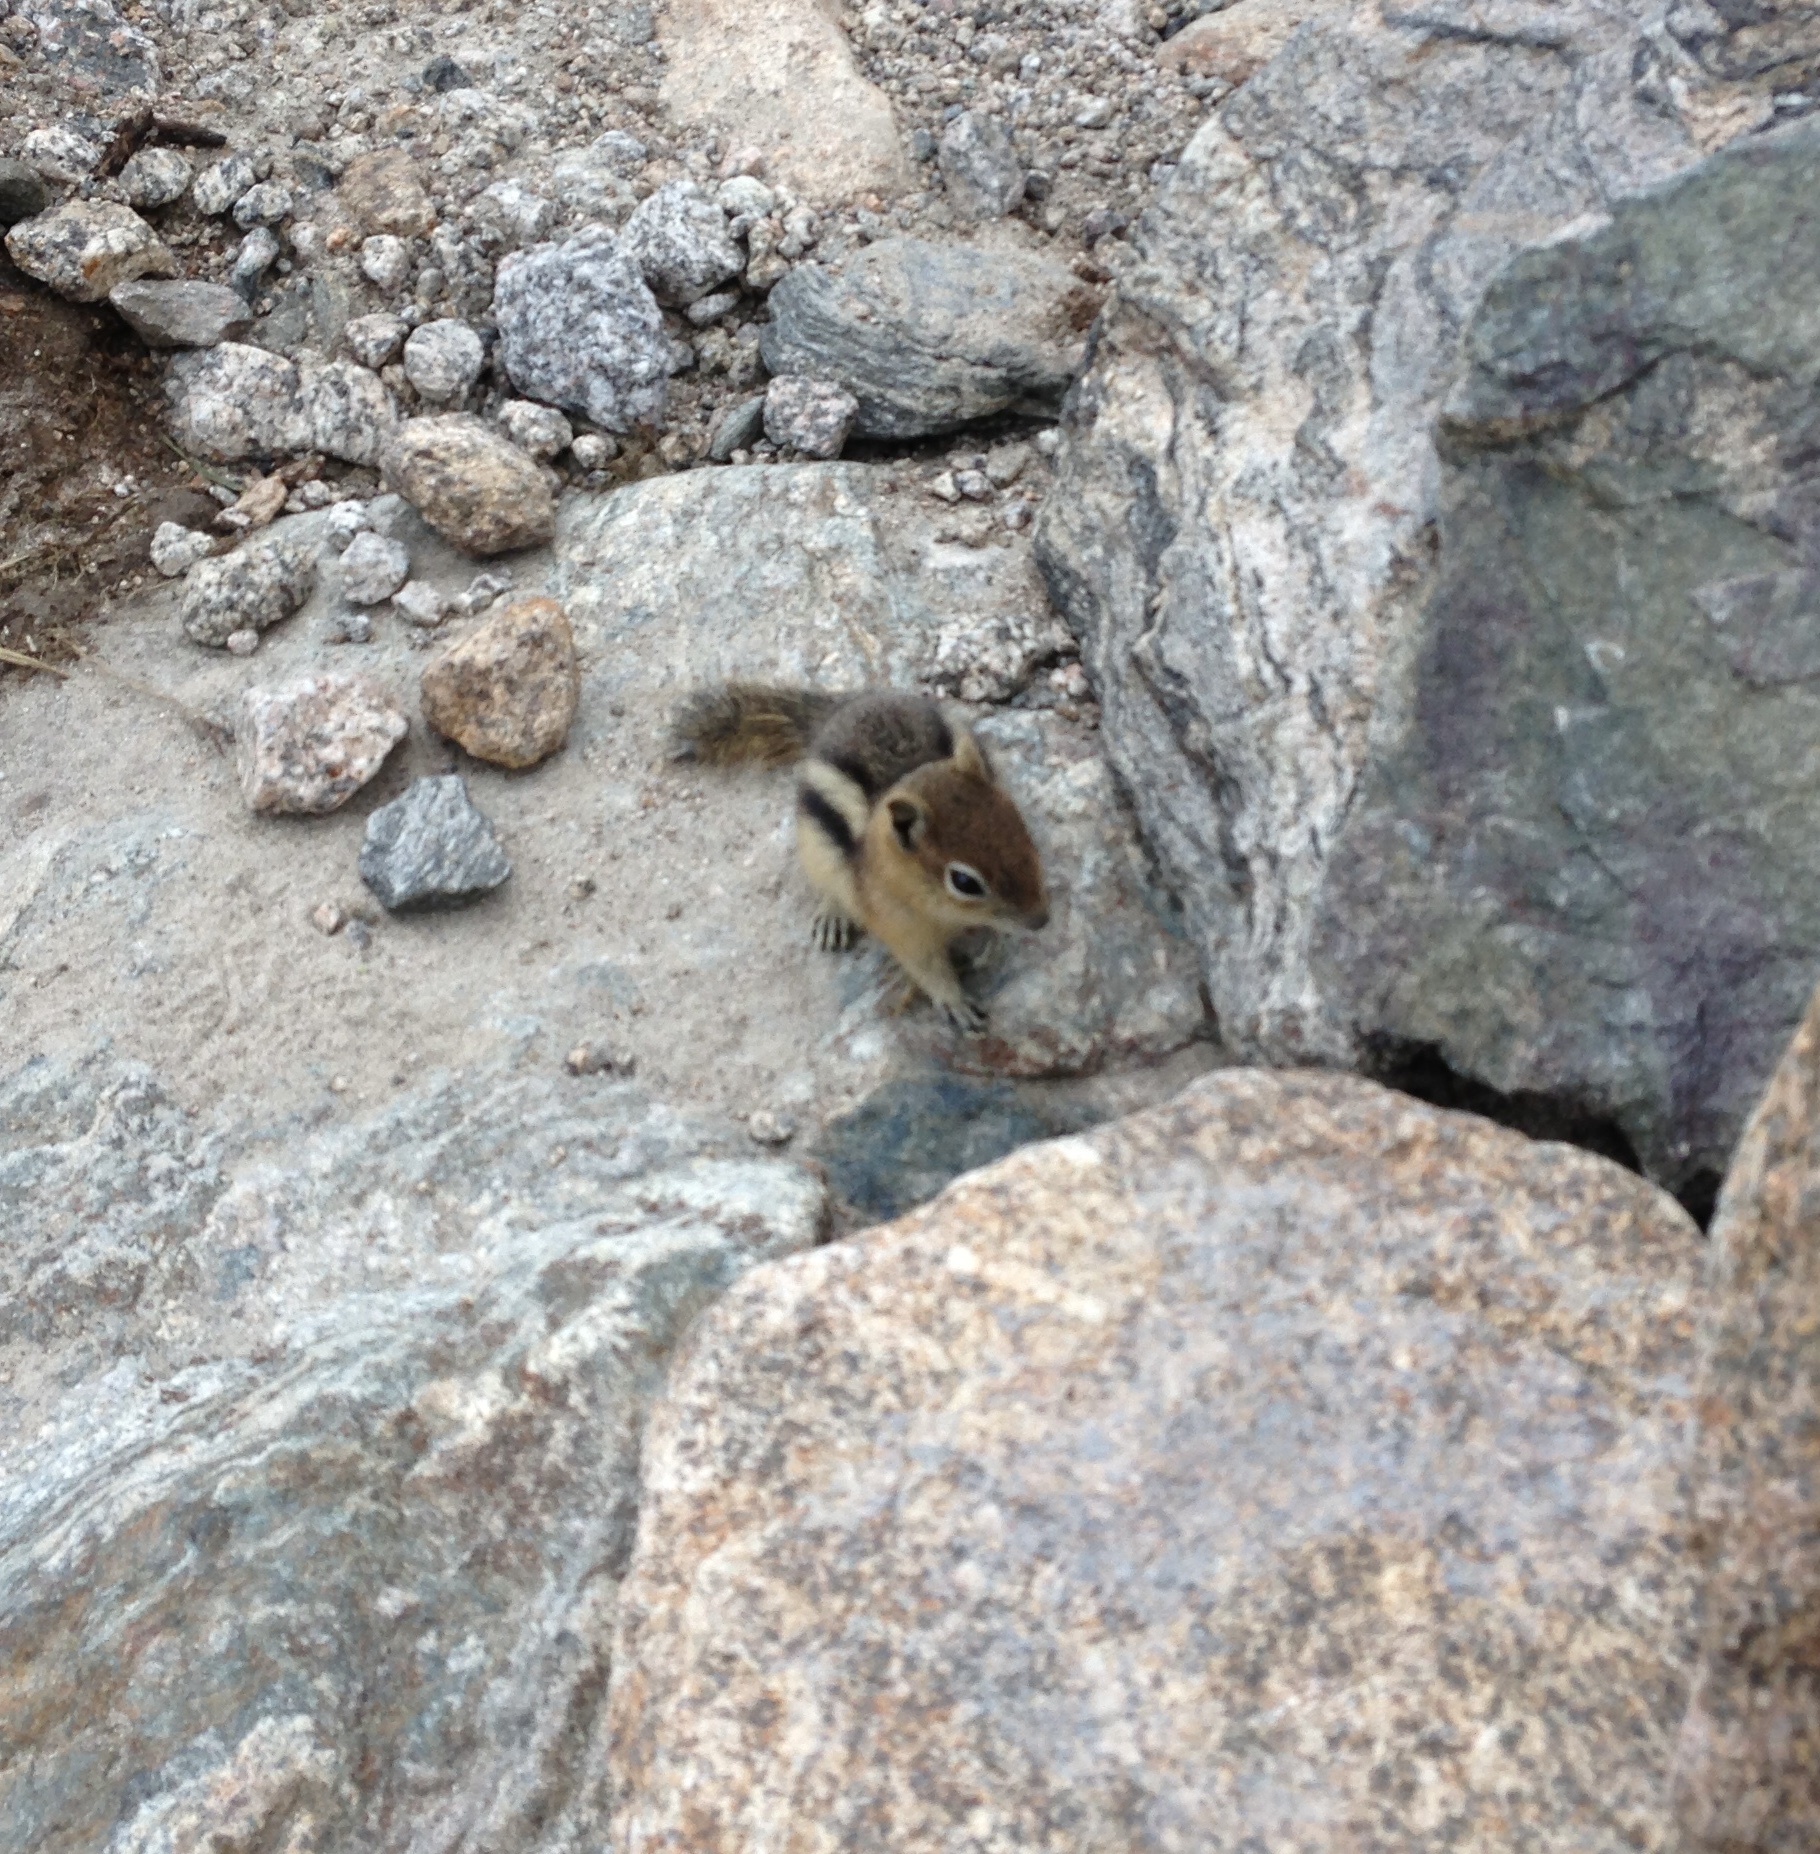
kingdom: Animalia
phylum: Chordata
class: Mammalia
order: Rodentia
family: Sciuridae
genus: Callospermophilus
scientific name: Callospermophilus lateralis
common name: Golden-mantled ground squirrel
